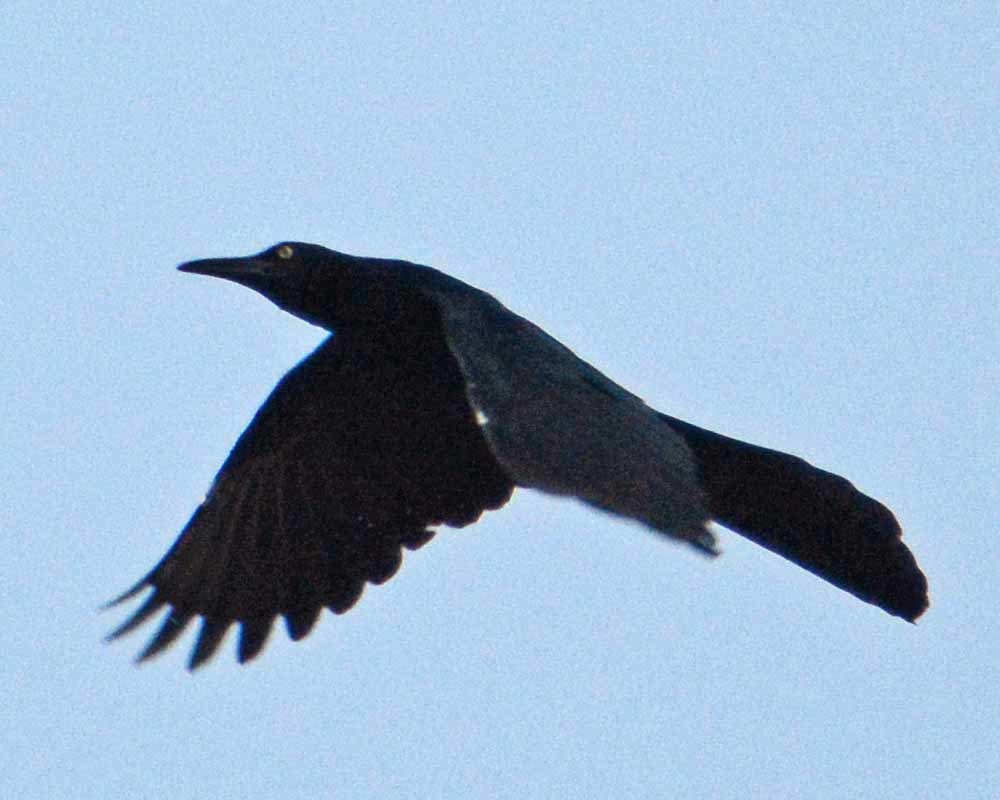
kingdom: Animalia
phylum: Chordata
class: Aves
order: Passeriformes
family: Icteridae
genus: Quiscalus
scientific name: Quiscalus mexicanus
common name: Great-tailed grackle
